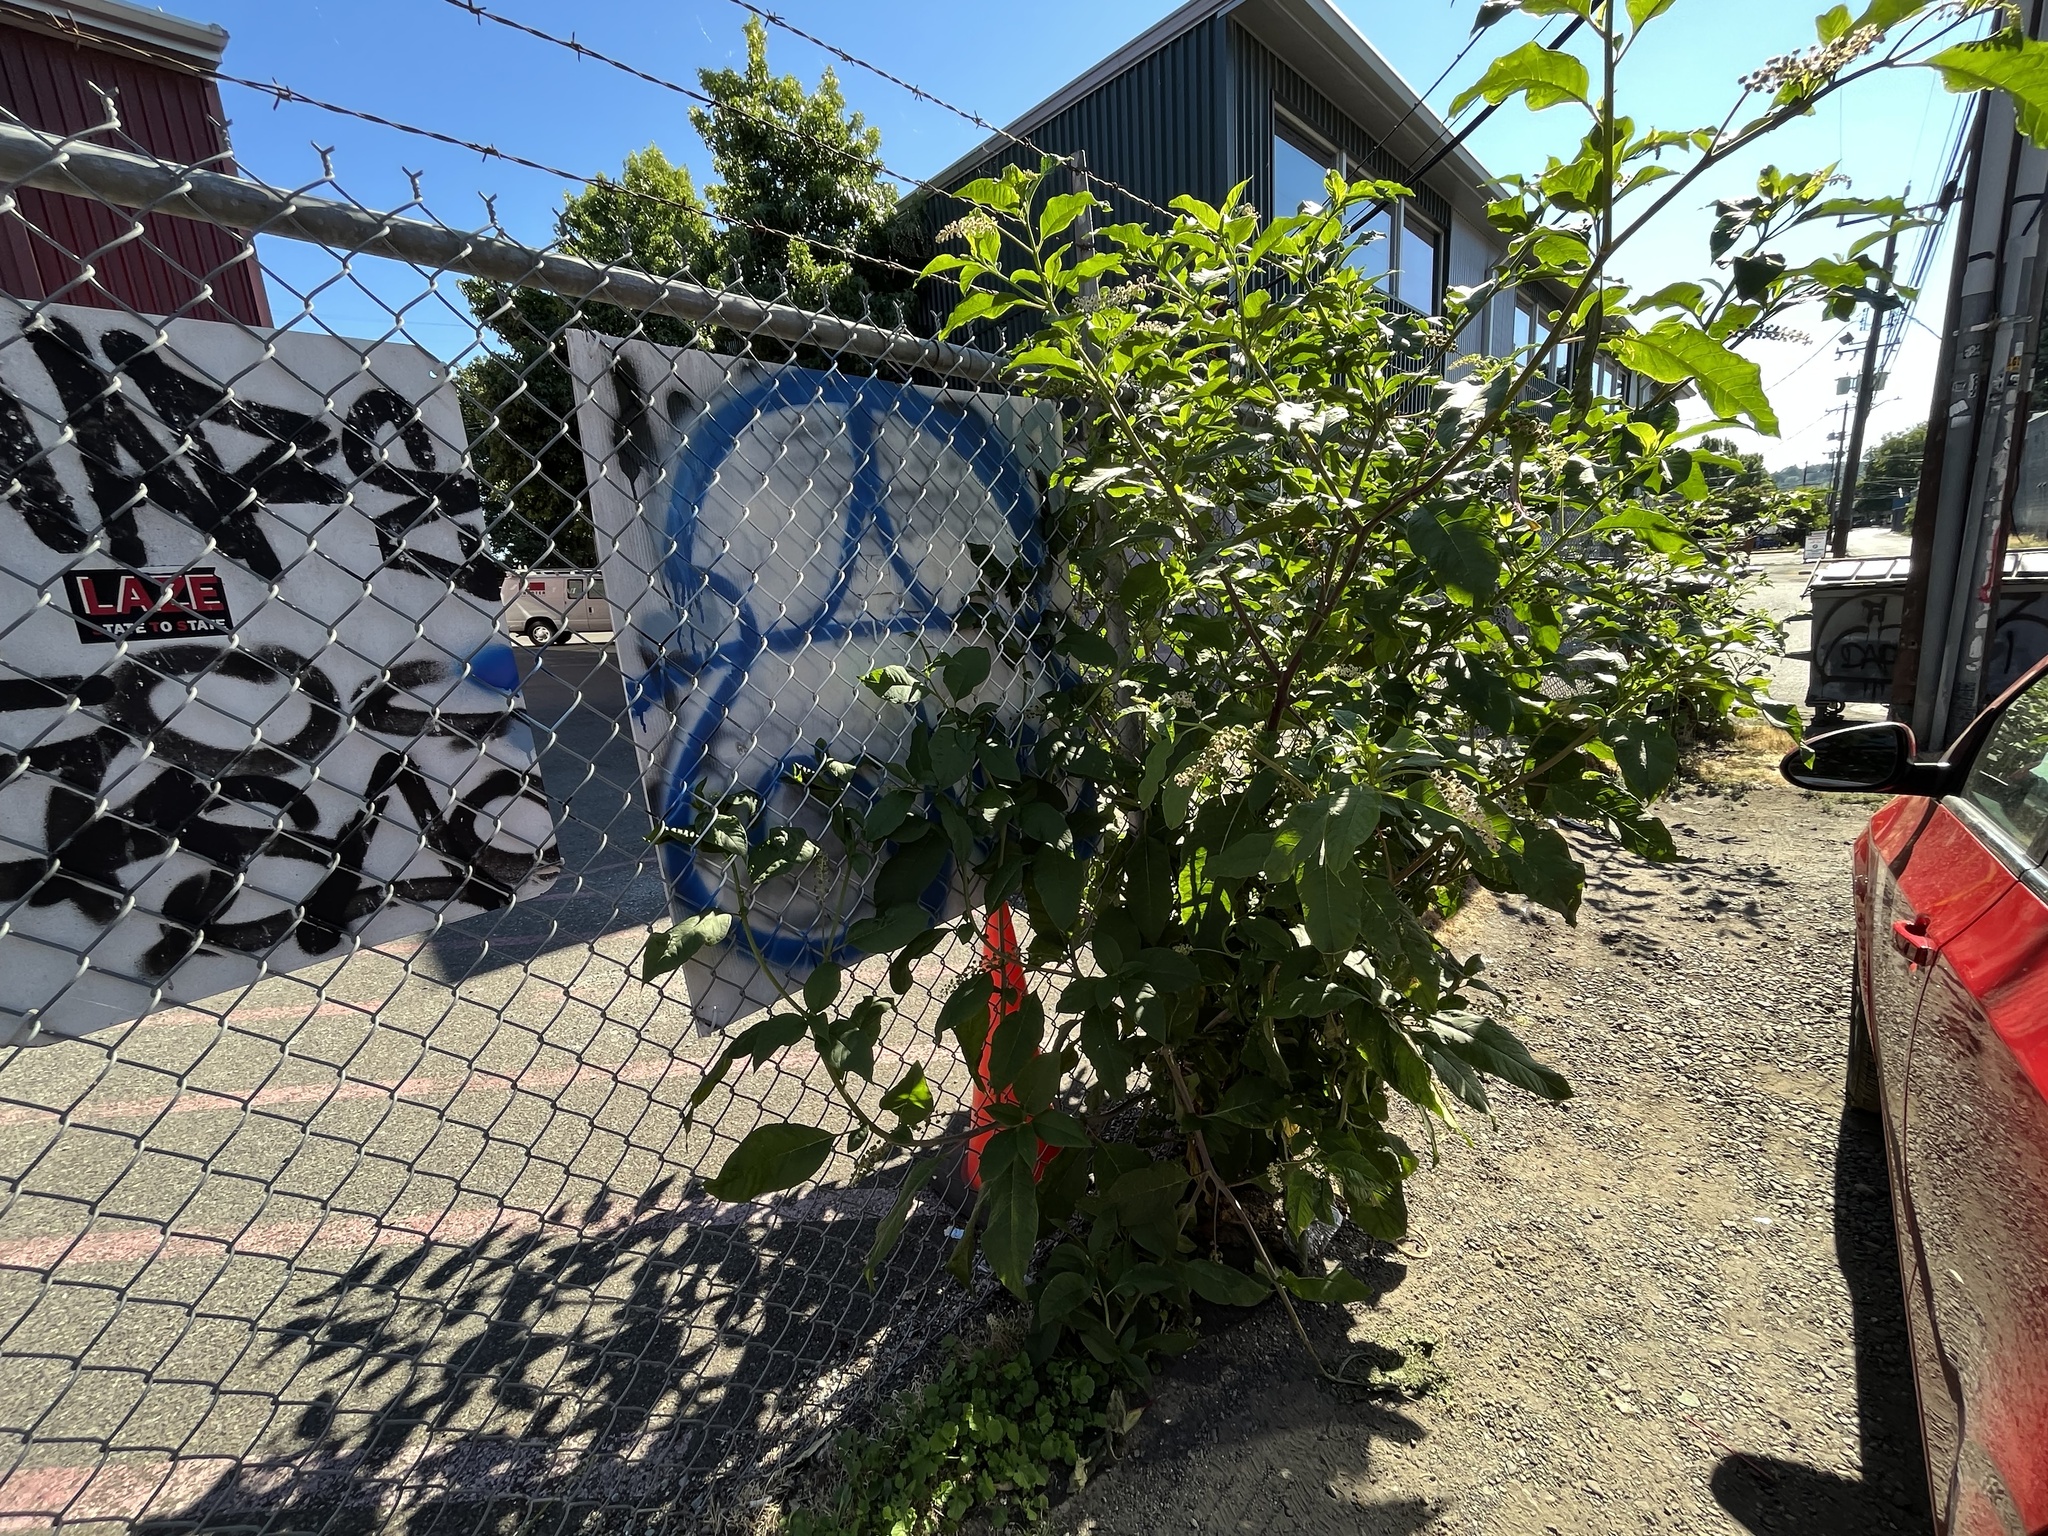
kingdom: Plantae
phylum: Tracheophyta
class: Magnoliopsida
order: Caryophyllales
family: Phytolaccaceae
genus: Phytolacca
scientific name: Phytolacca americana
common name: American pokeweed
